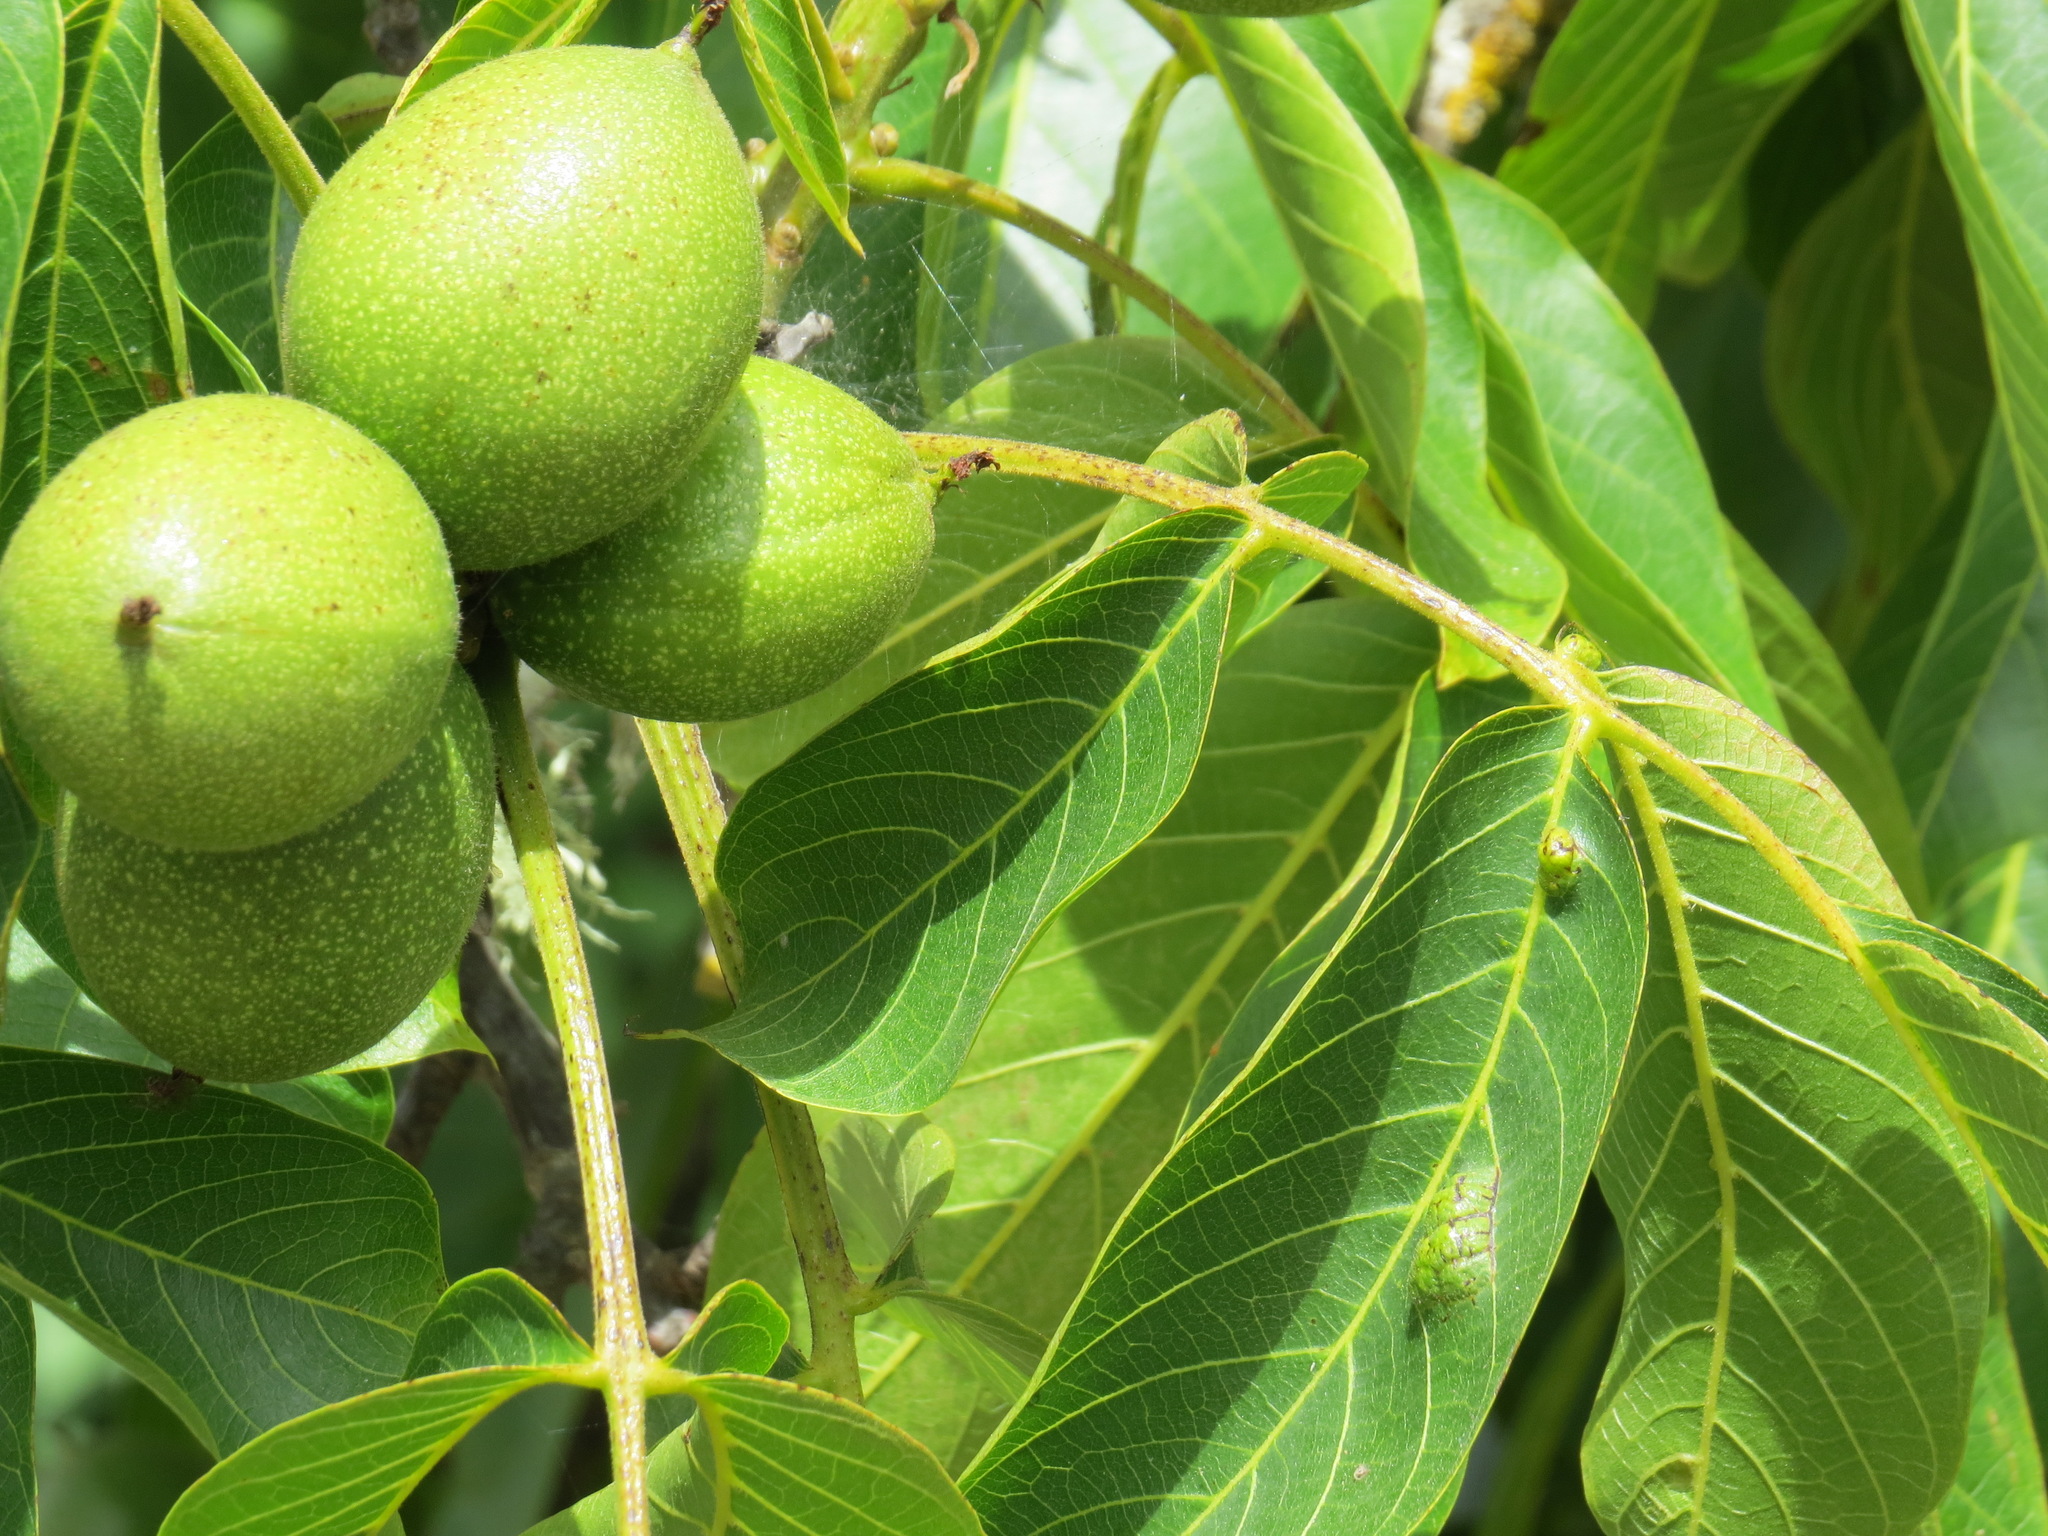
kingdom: Animalia
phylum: Arthropoda
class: Arachnida
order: Trombidiformes
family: Eriophyidae
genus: Aceria
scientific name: Aceria erinea
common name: Persian walnut erineum mite
